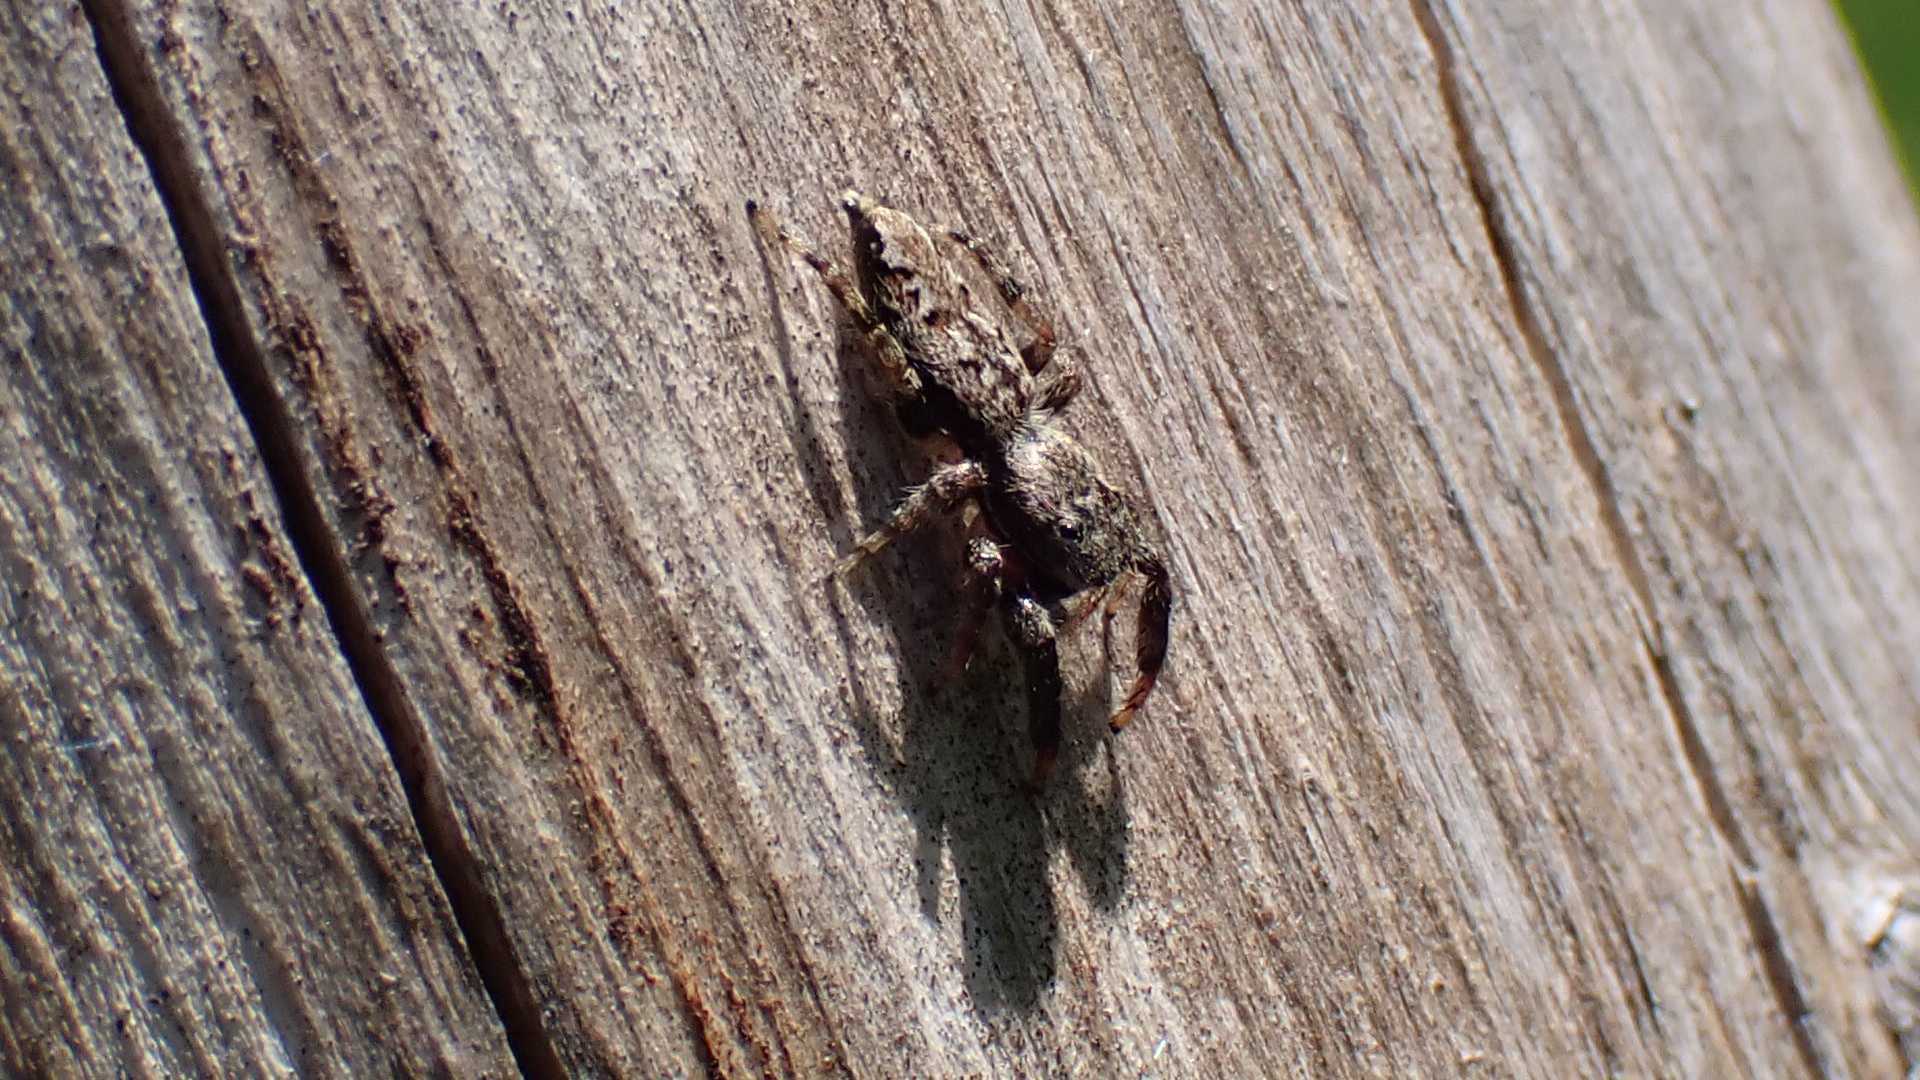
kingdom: Animalia
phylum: Arthropoda
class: Arachnida
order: Araneae
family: Salticidae
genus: Marpissa
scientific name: Marpissa muscosa
